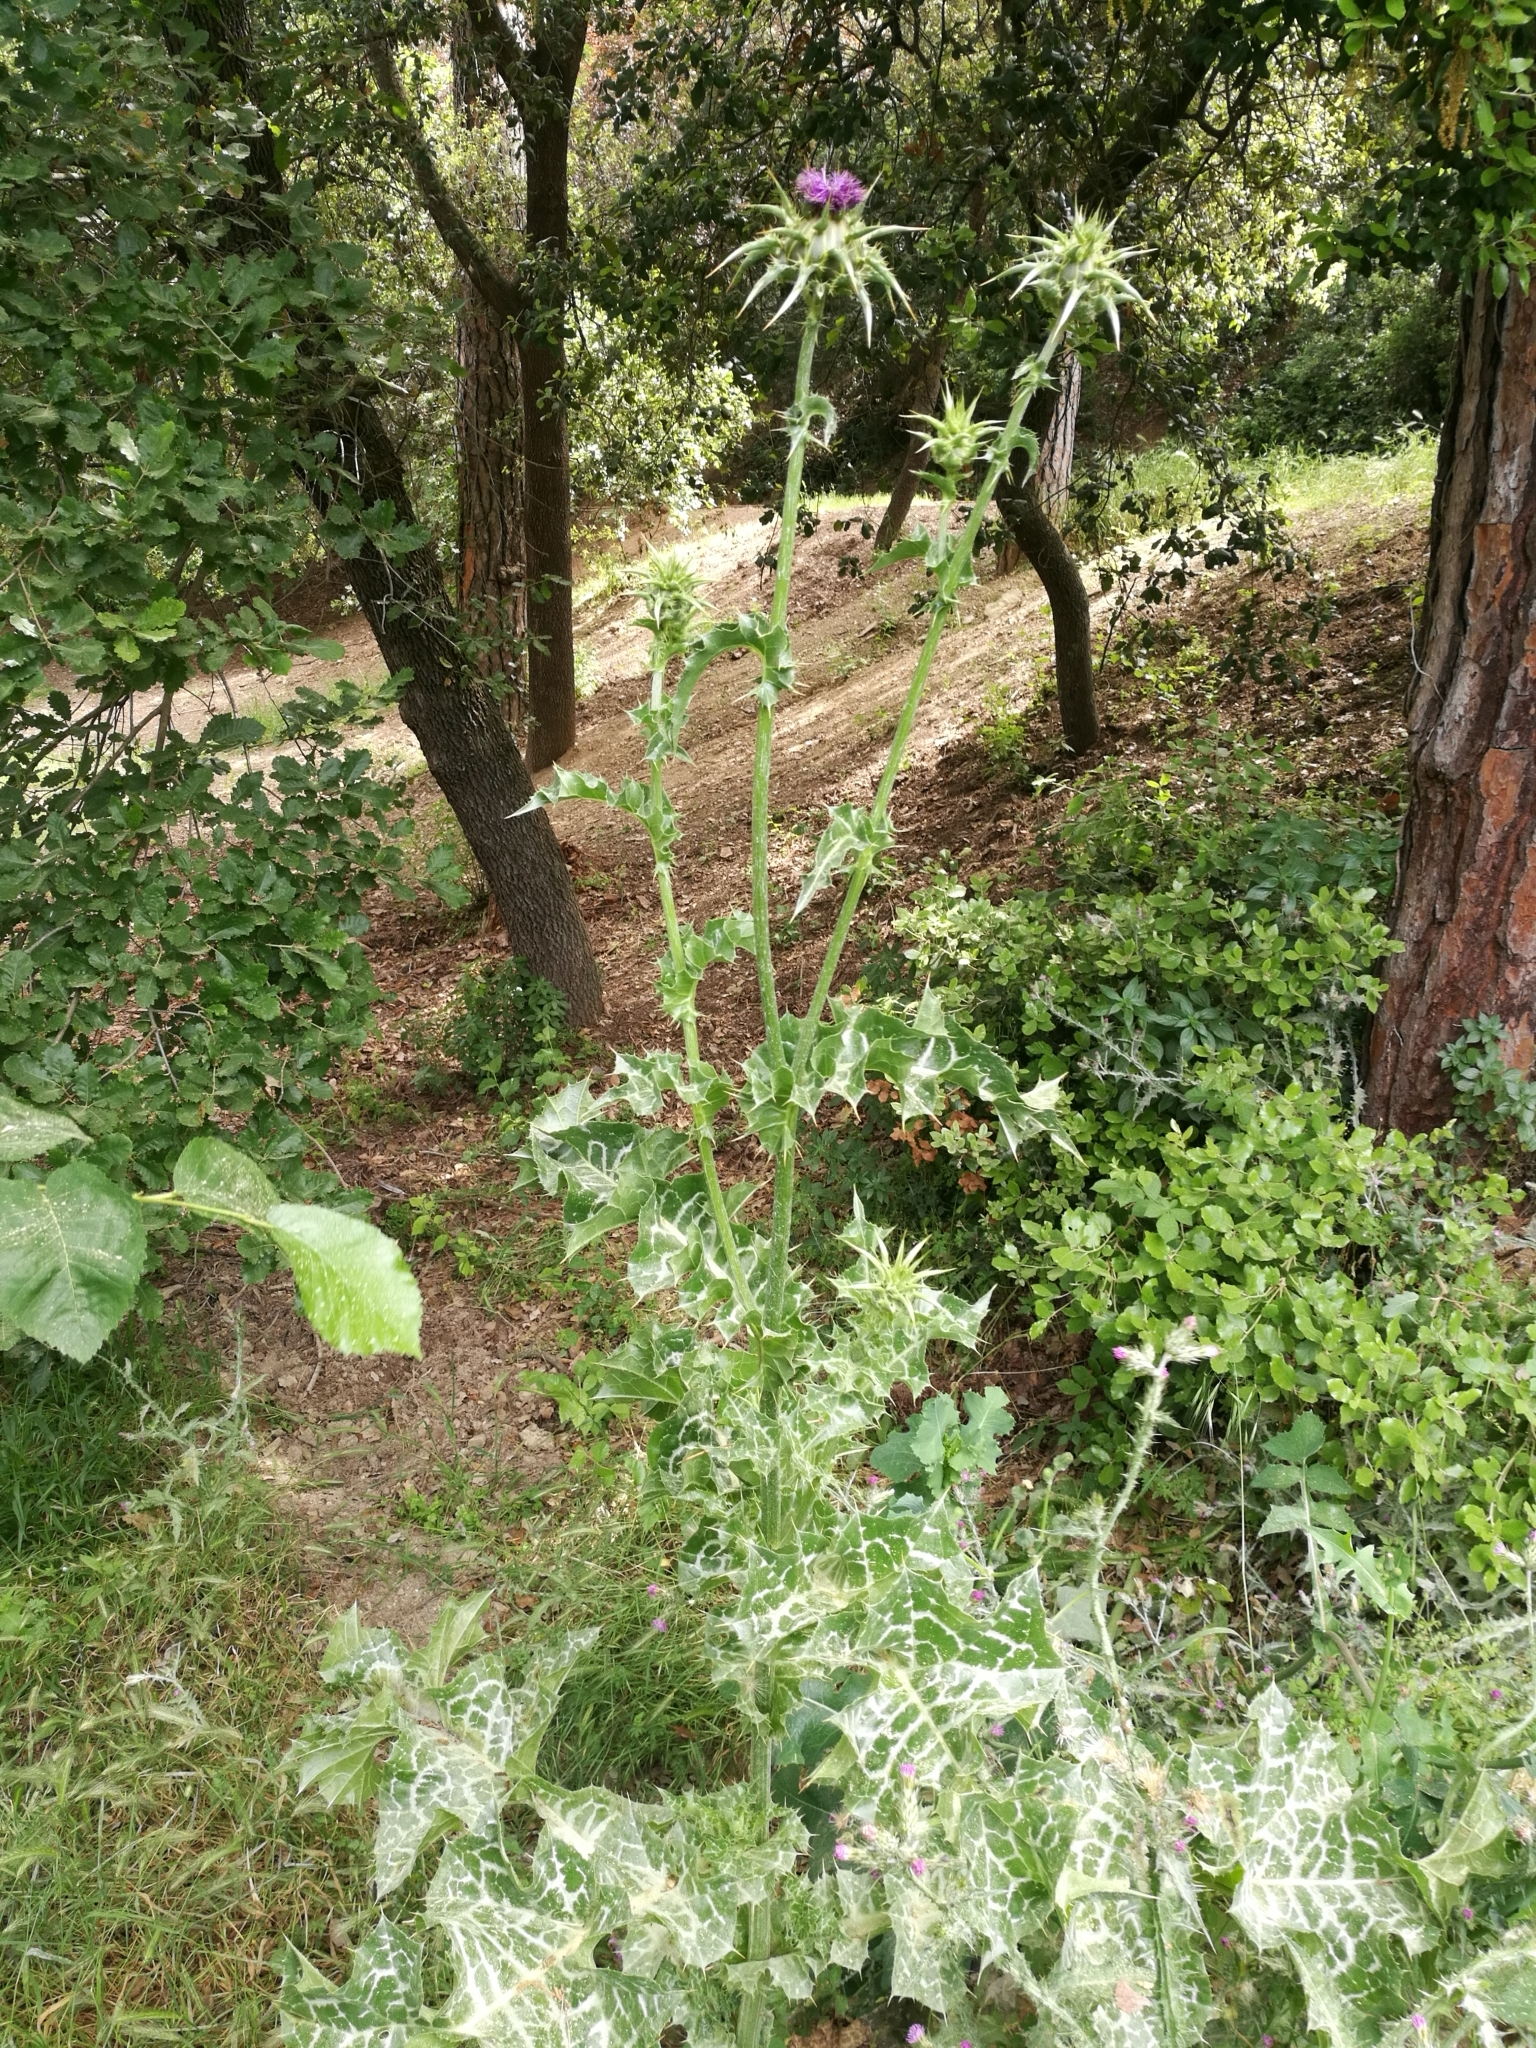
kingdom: Plantae
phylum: Tracheophyta
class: Magnoliopsida
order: Asterales
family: Asteraceae
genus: Silybum
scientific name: Silybum marianum
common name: Milk thistle
